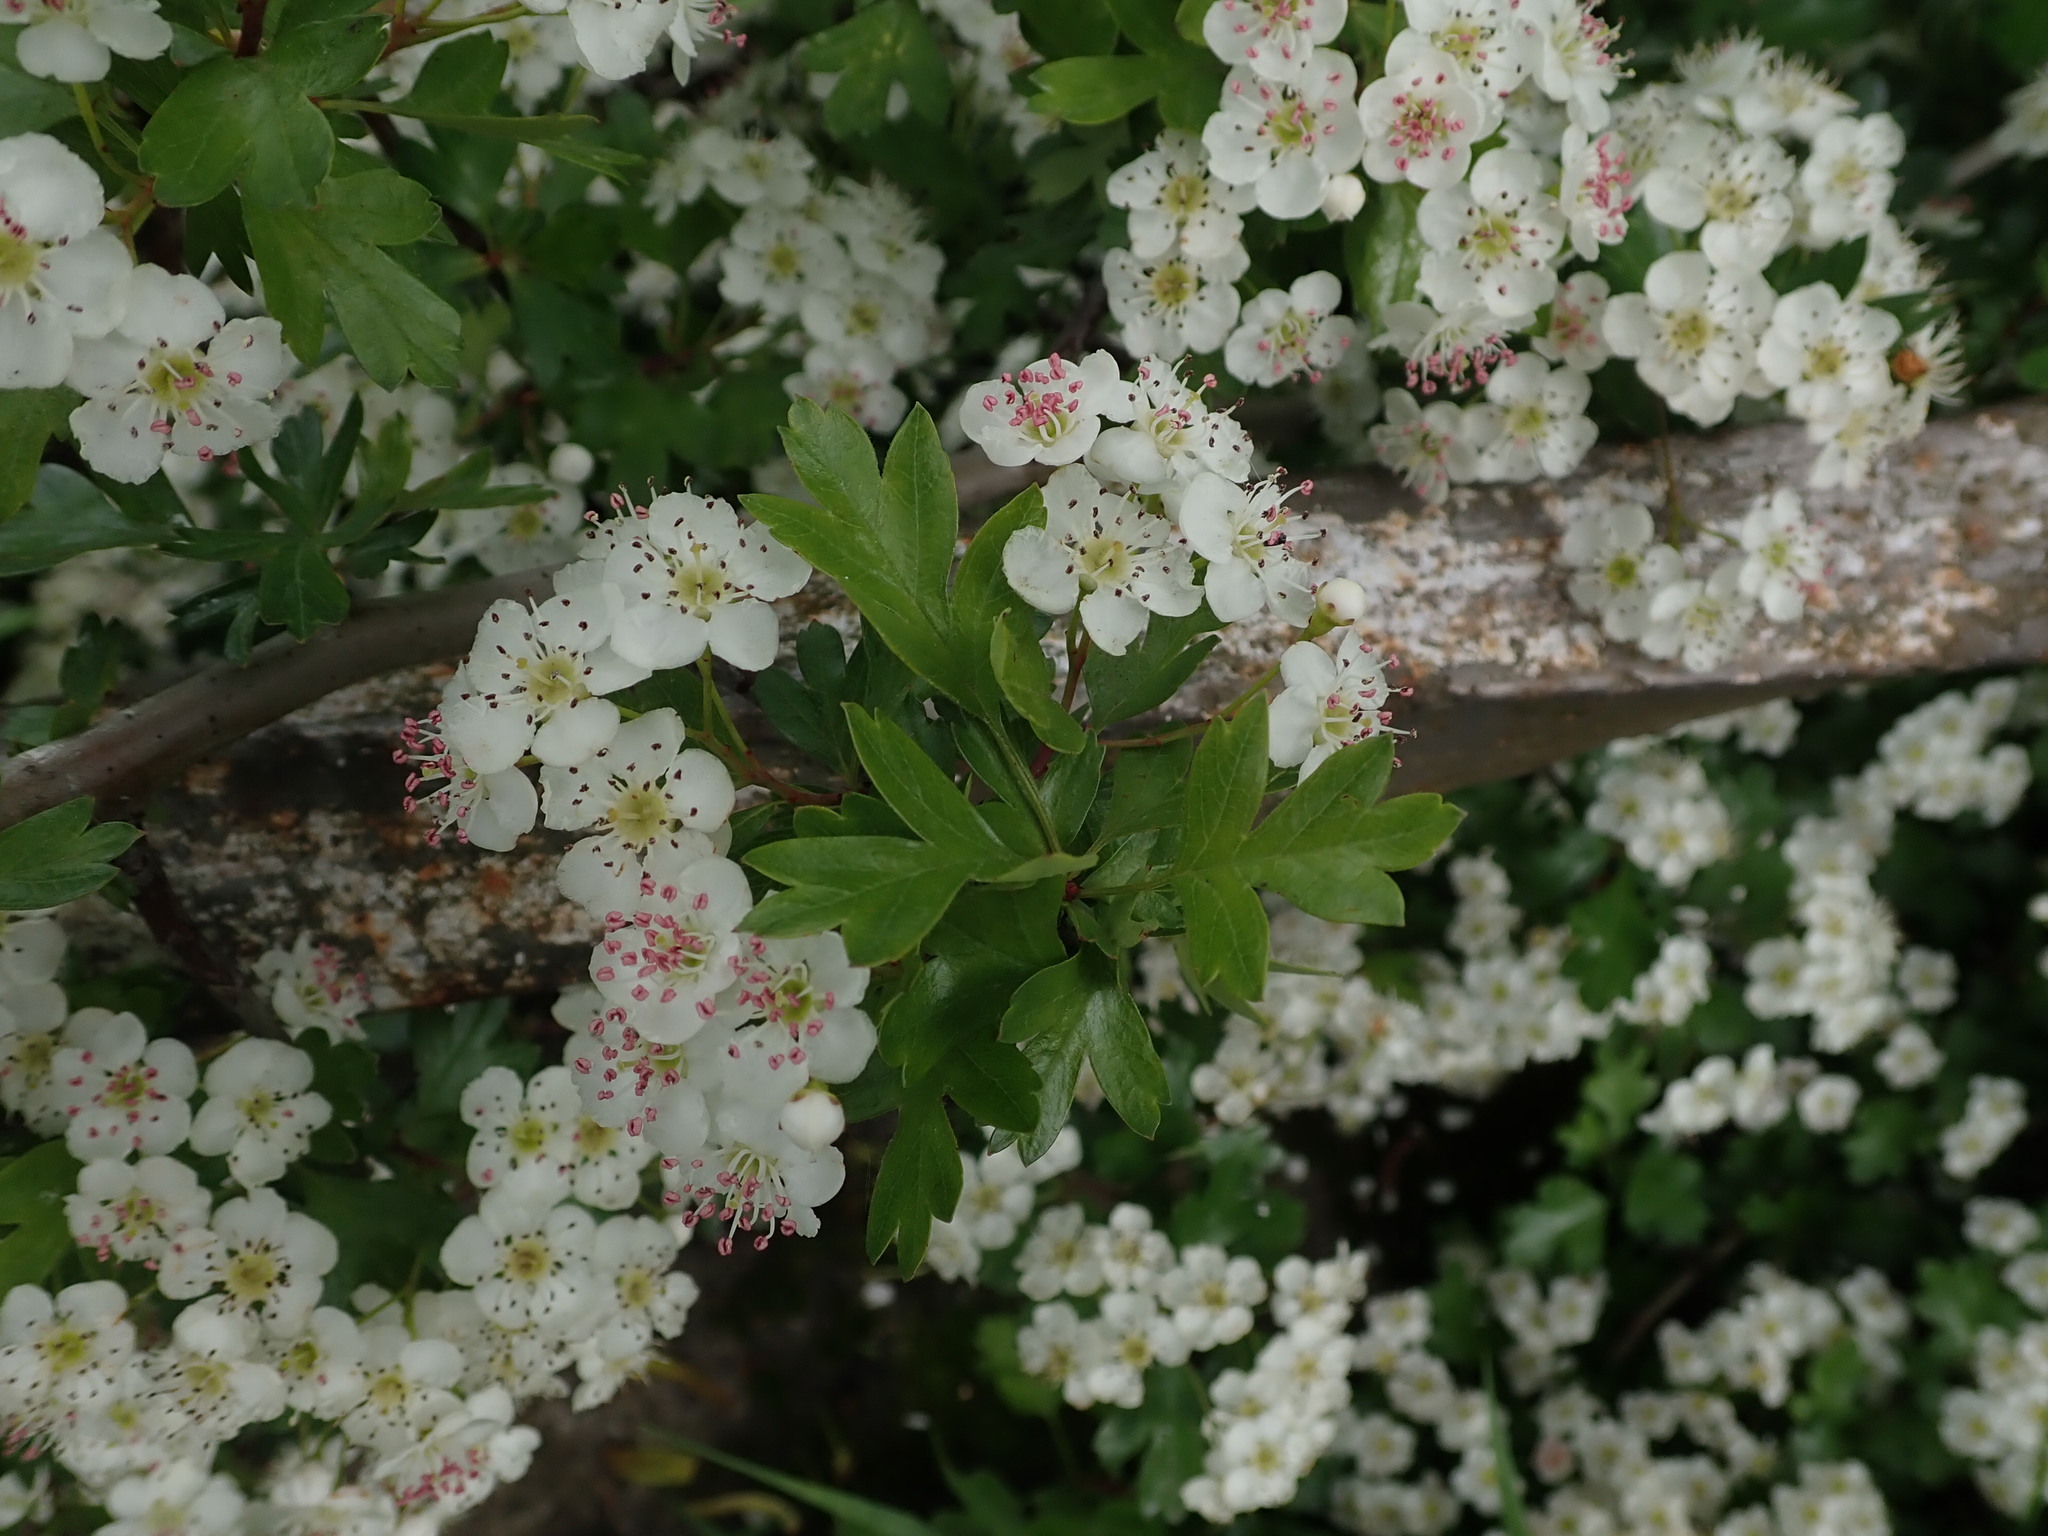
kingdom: Plantae
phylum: Tracheophyta
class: Magnoliopsida
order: Rosales
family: Rosaceae
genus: Crataegus
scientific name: Crataegus monogyna
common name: Hawthorn
